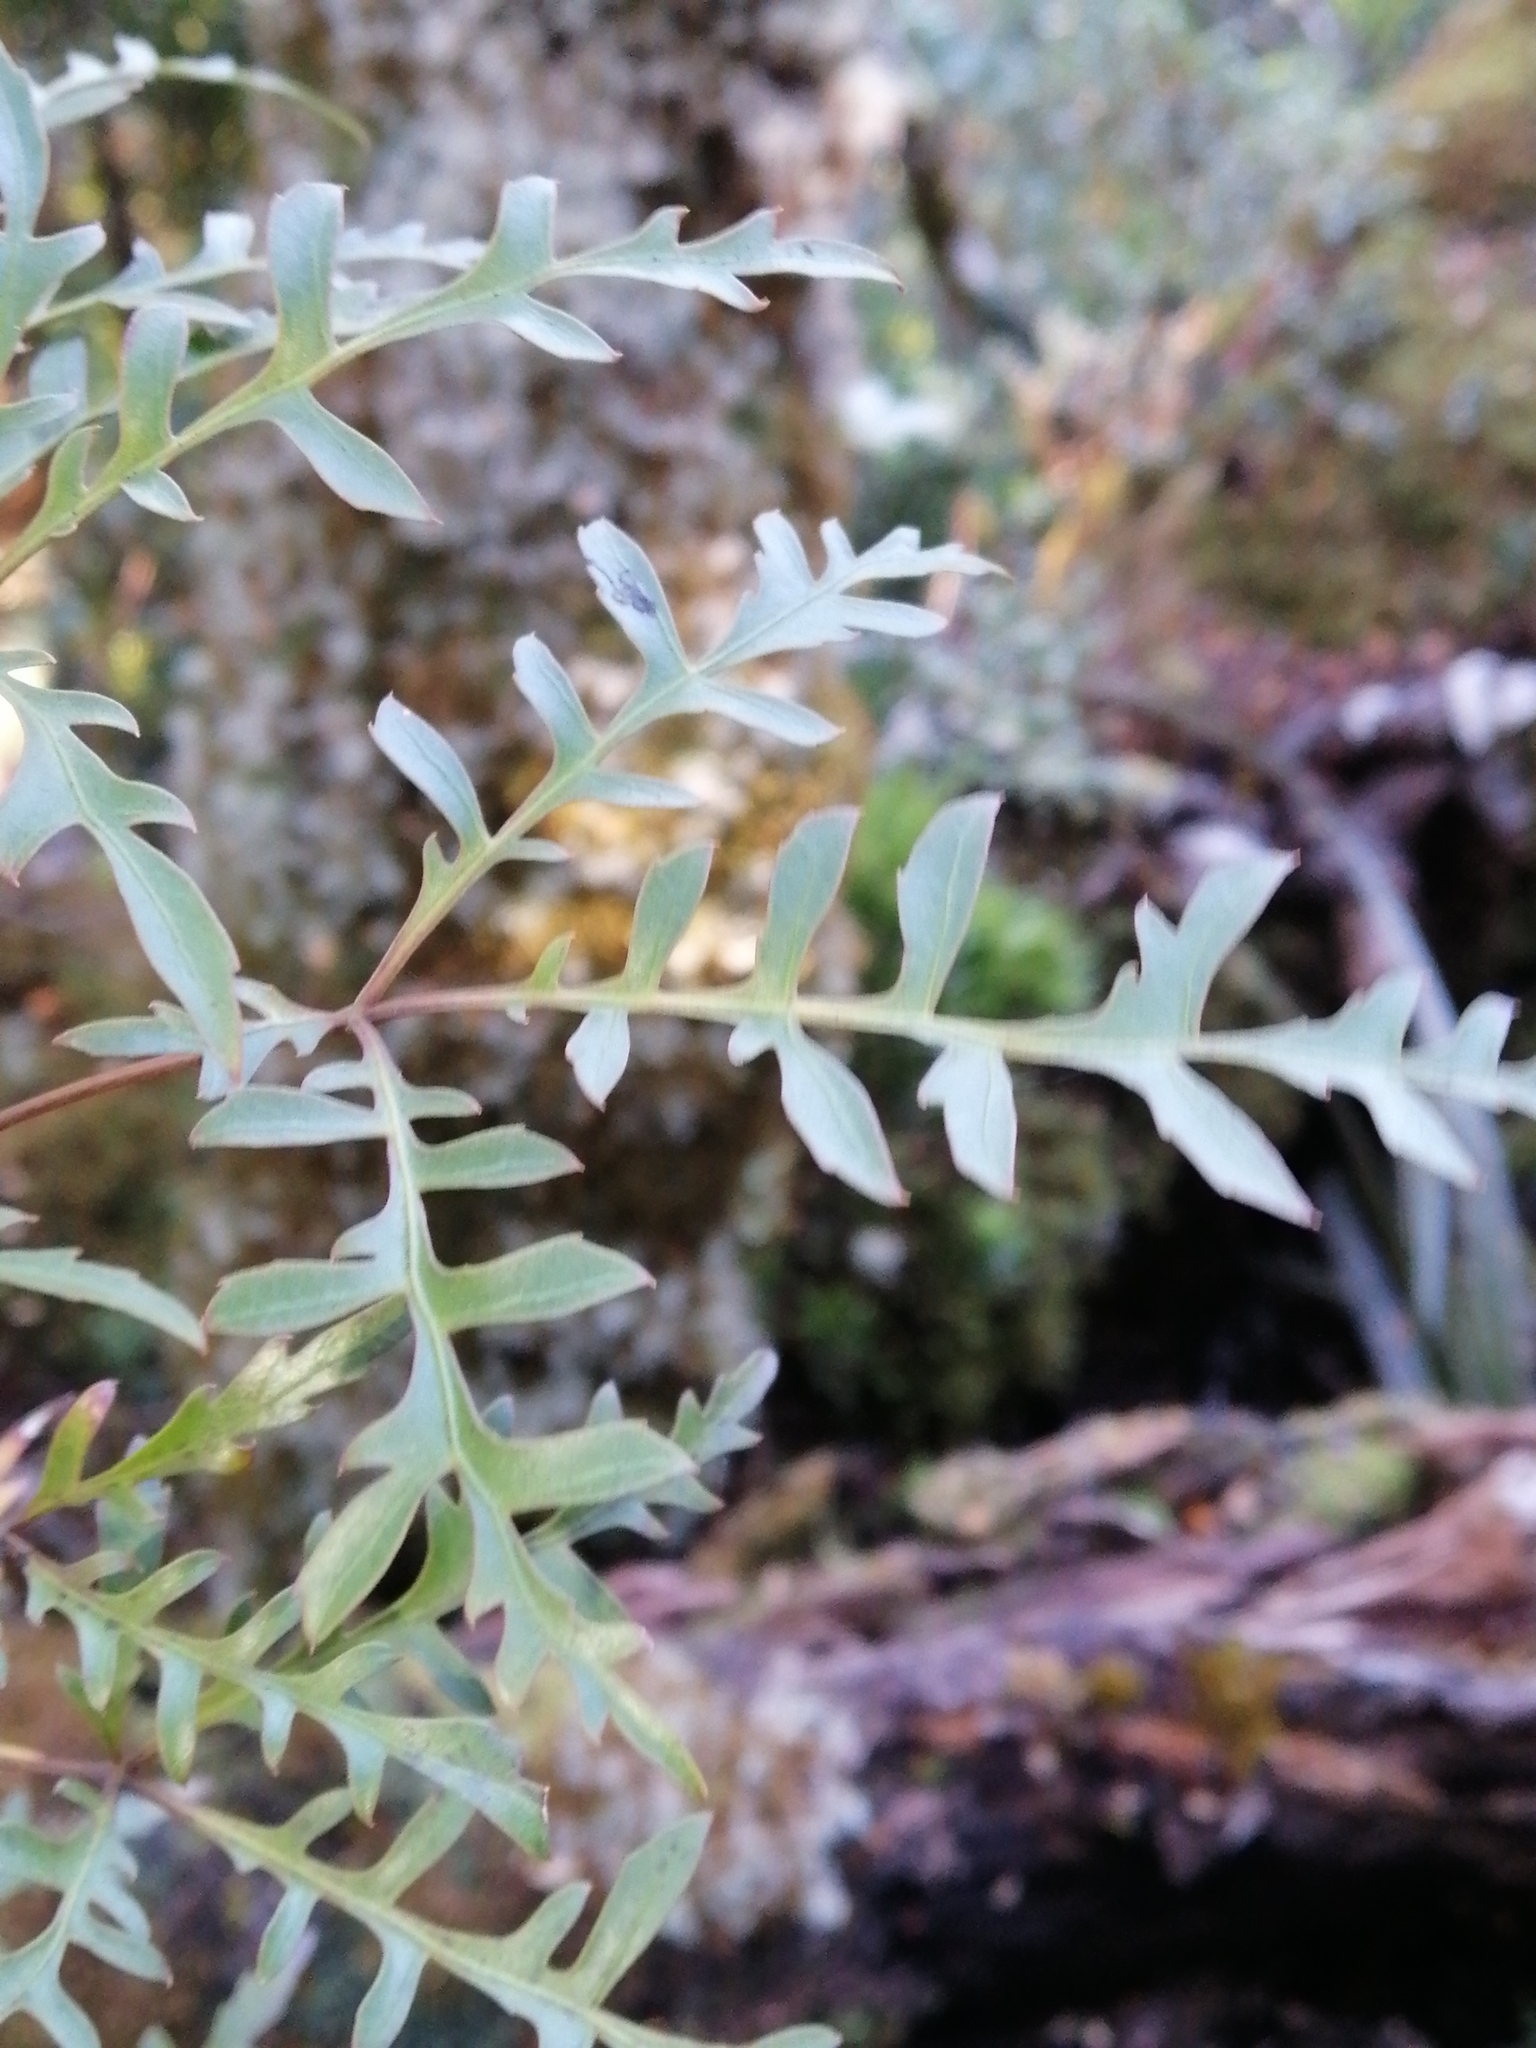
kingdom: Plantae
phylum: Tracheophyta
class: Magnoliopsida
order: Apiales
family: Araliaceae
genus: Raukaua
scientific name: Raukaua simplex
